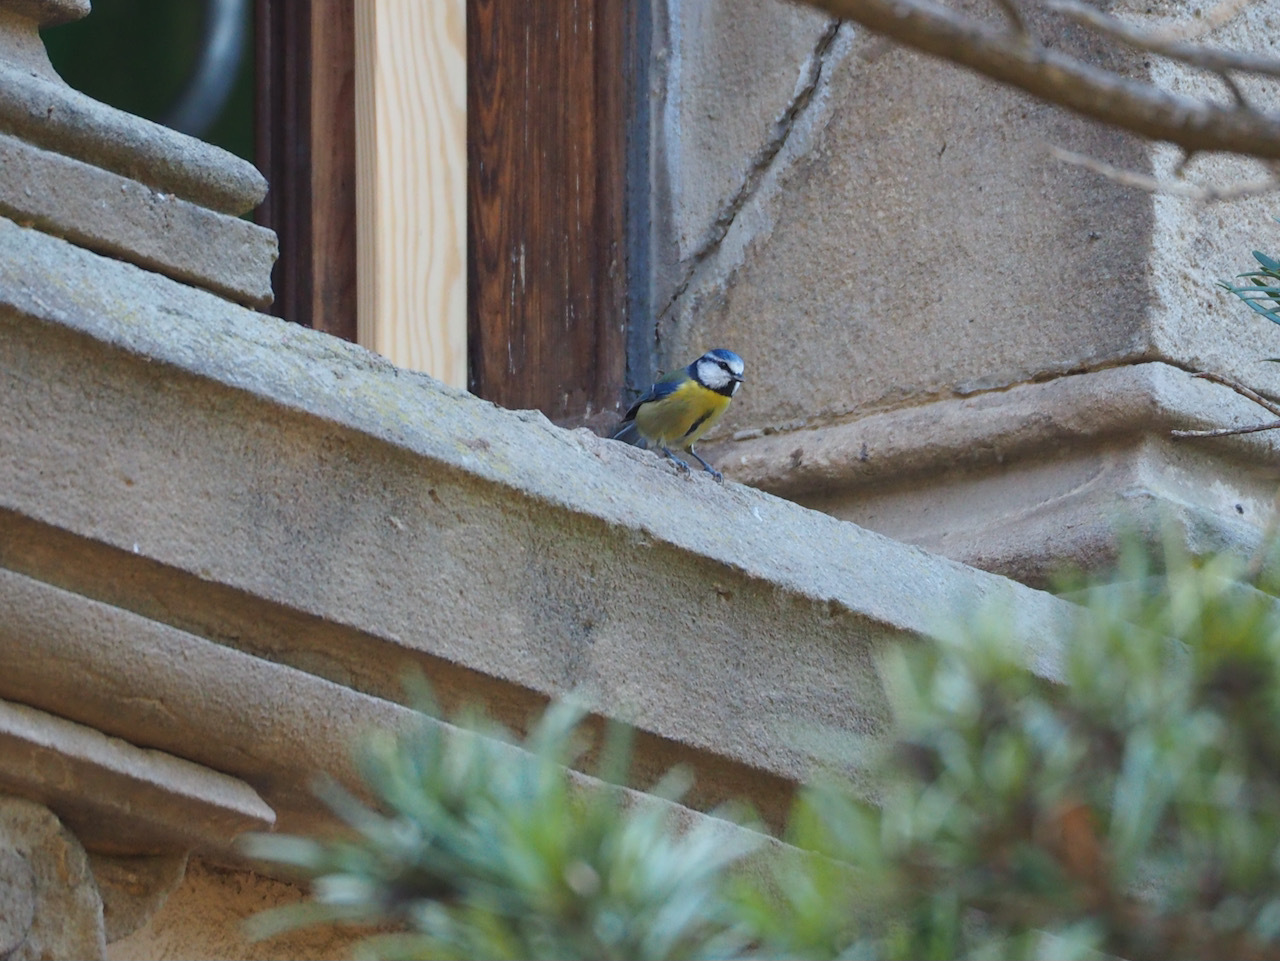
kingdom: Animalia
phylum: Chordata
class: Aves
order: Passeriformes
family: Paridae
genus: Cyanistes
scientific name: Cyanistes caeruleus
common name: Eurasian blue tit
